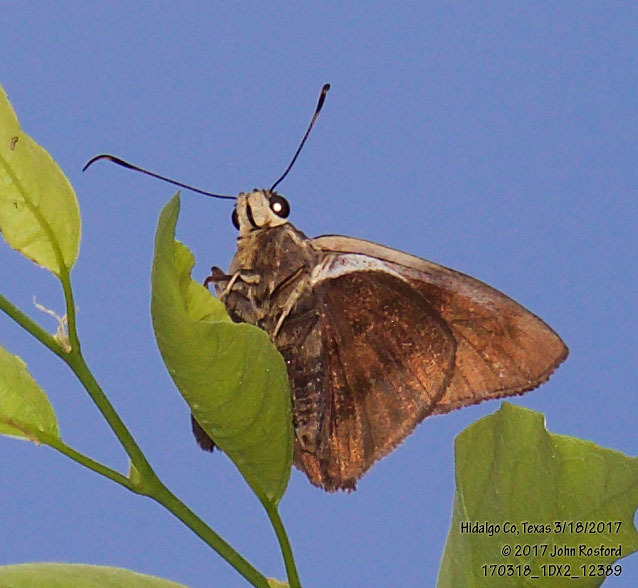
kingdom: Animalia
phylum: Arthropoda
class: Insecta
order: Lepidoptera
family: Hesperiidae
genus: Astraptes
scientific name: Astraptes alector
